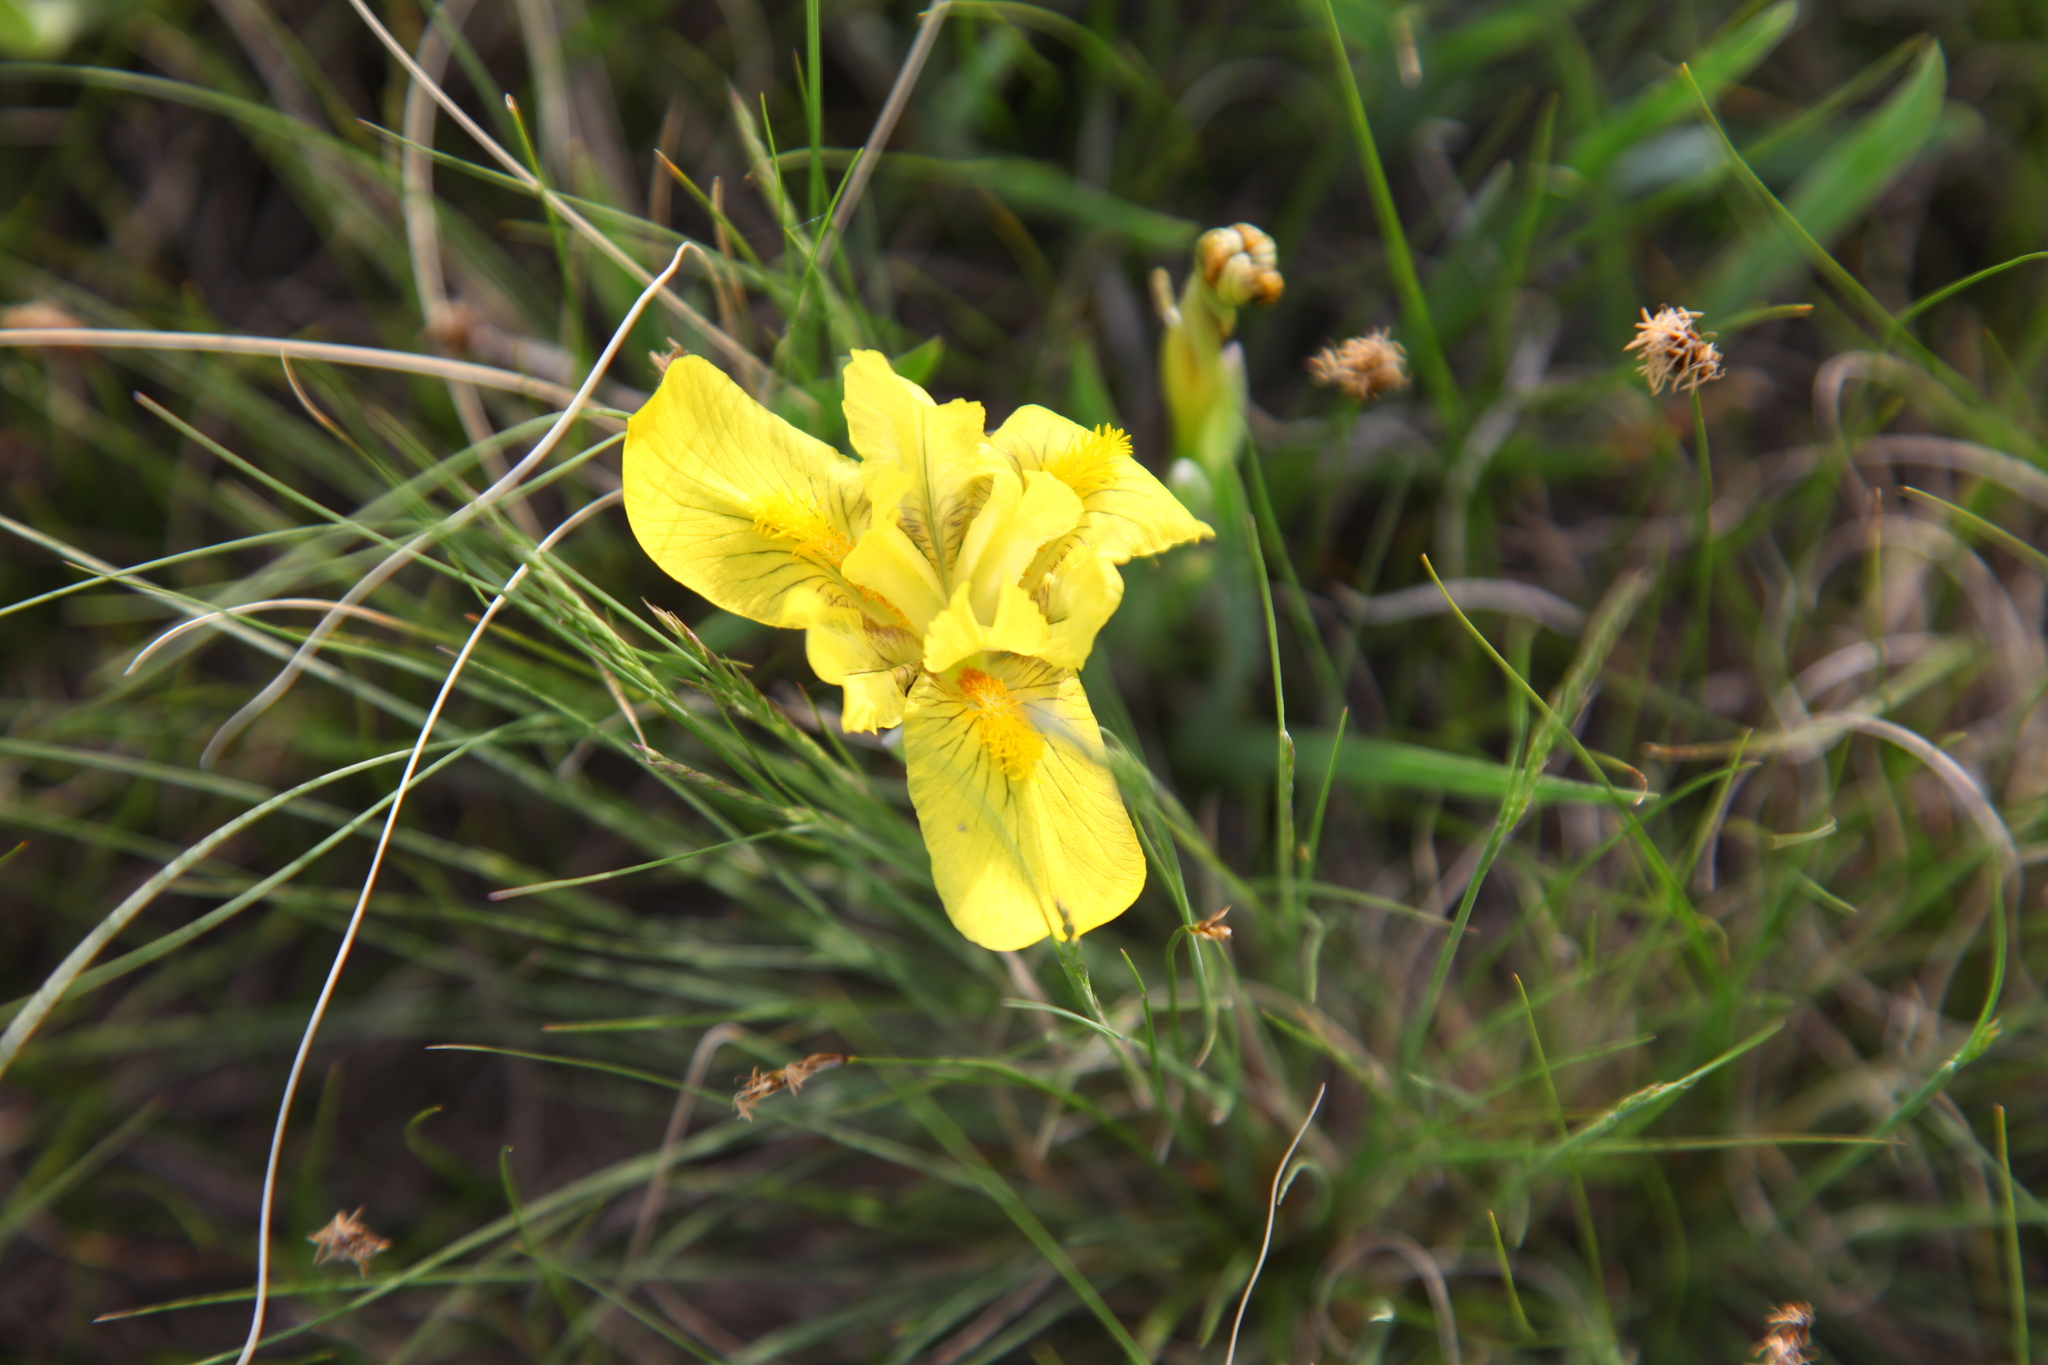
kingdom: Plantae
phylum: Tracheophyta
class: Liliopsida
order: Asparagales
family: Iridaceae
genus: Iris
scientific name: Iris humilis
